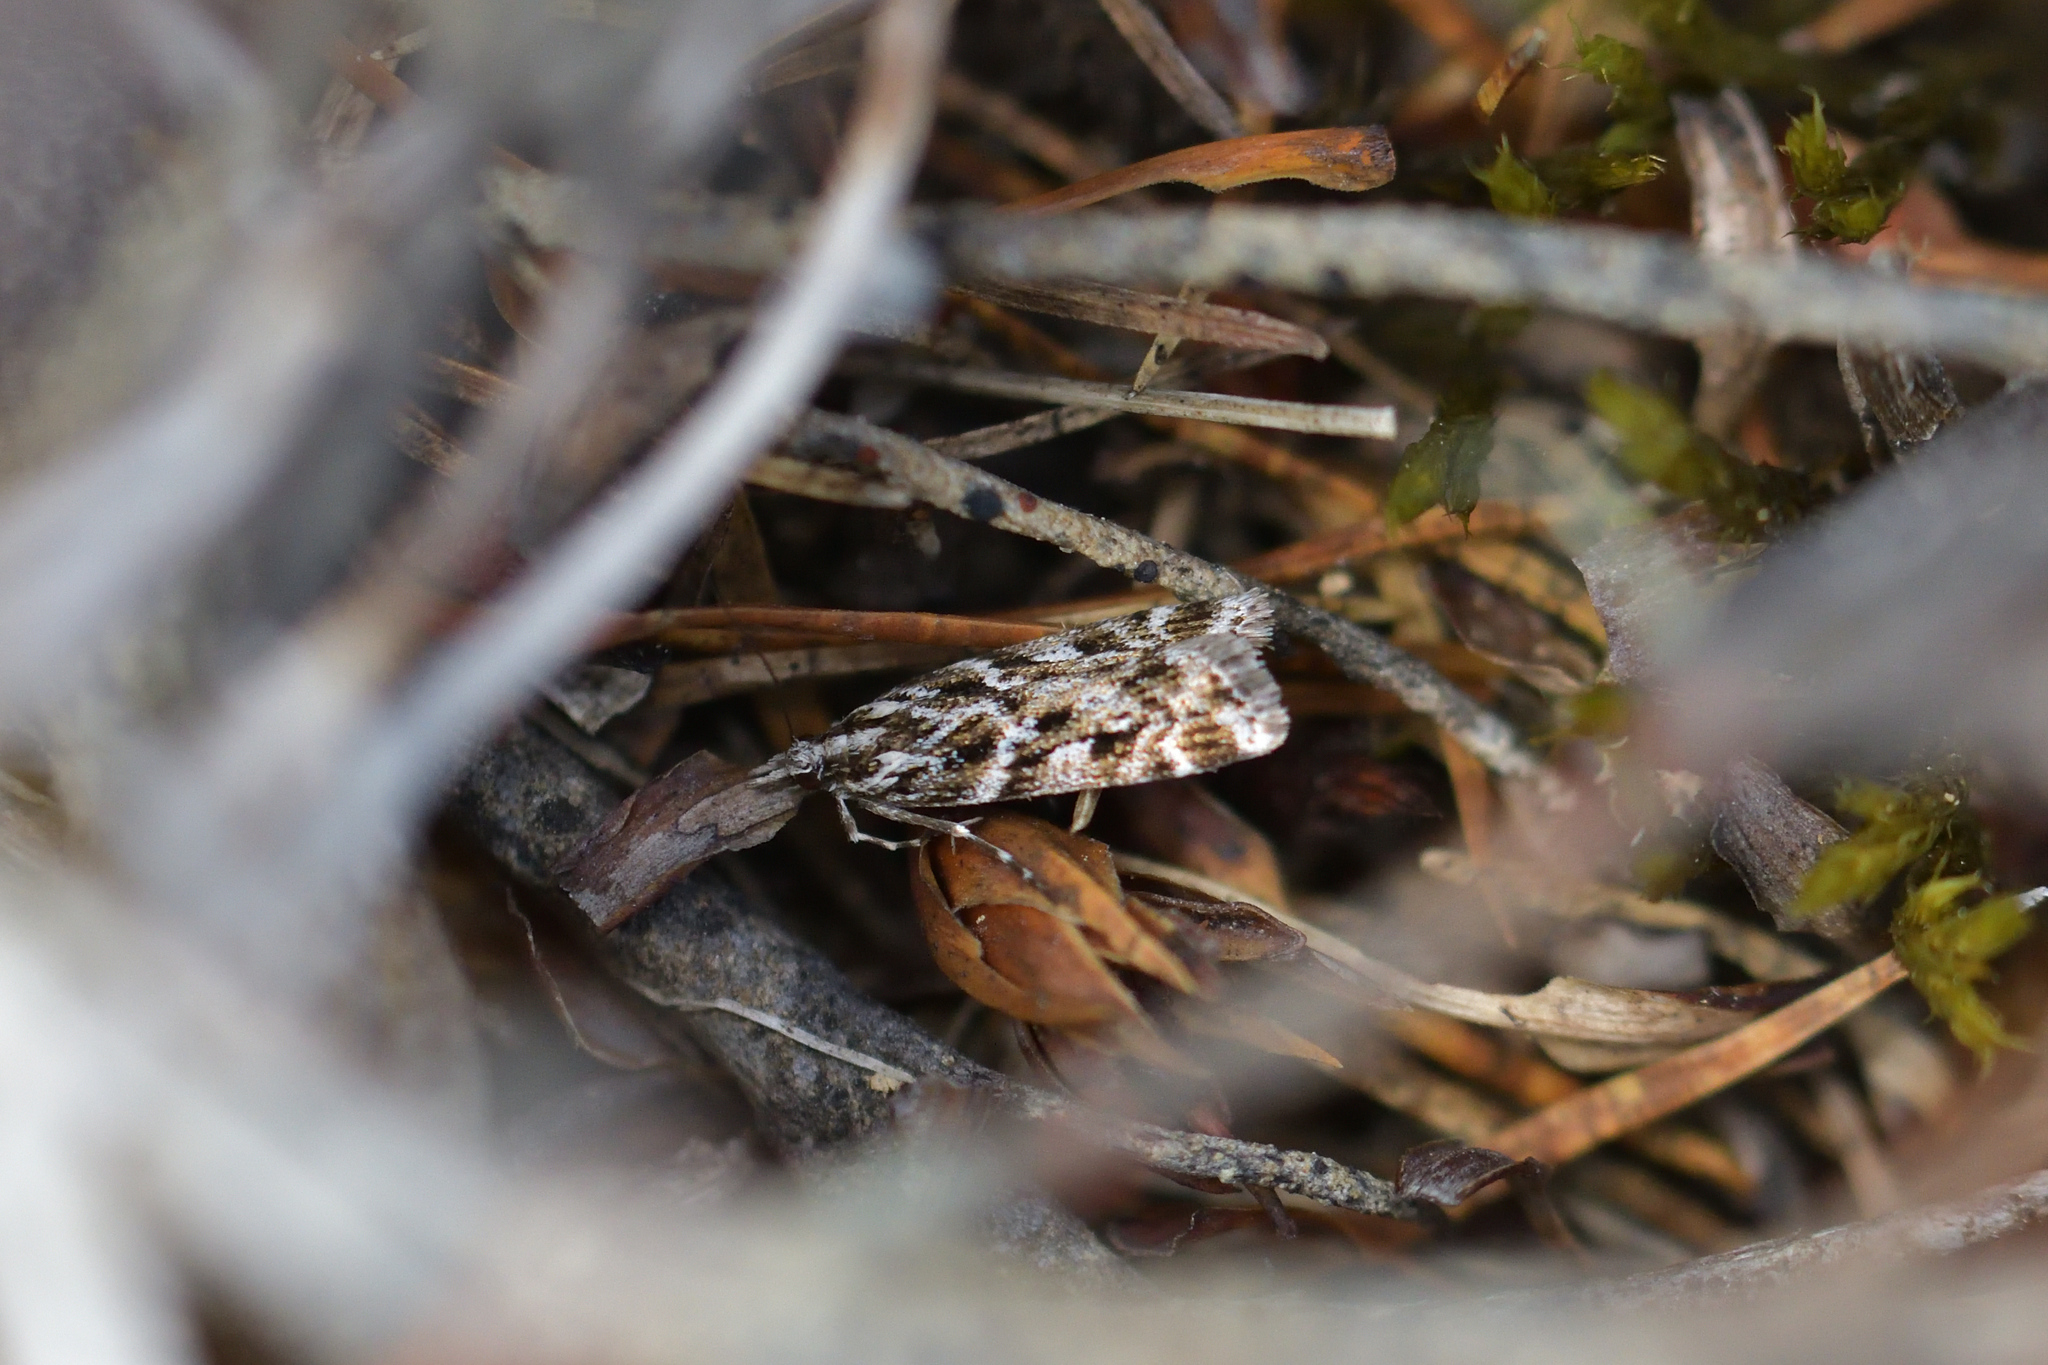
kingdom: Animalia
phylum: Arthropoda
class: Insecta
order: Lepidoptera
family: Crambidae
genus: Scoparia
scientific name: Scoparia illota
